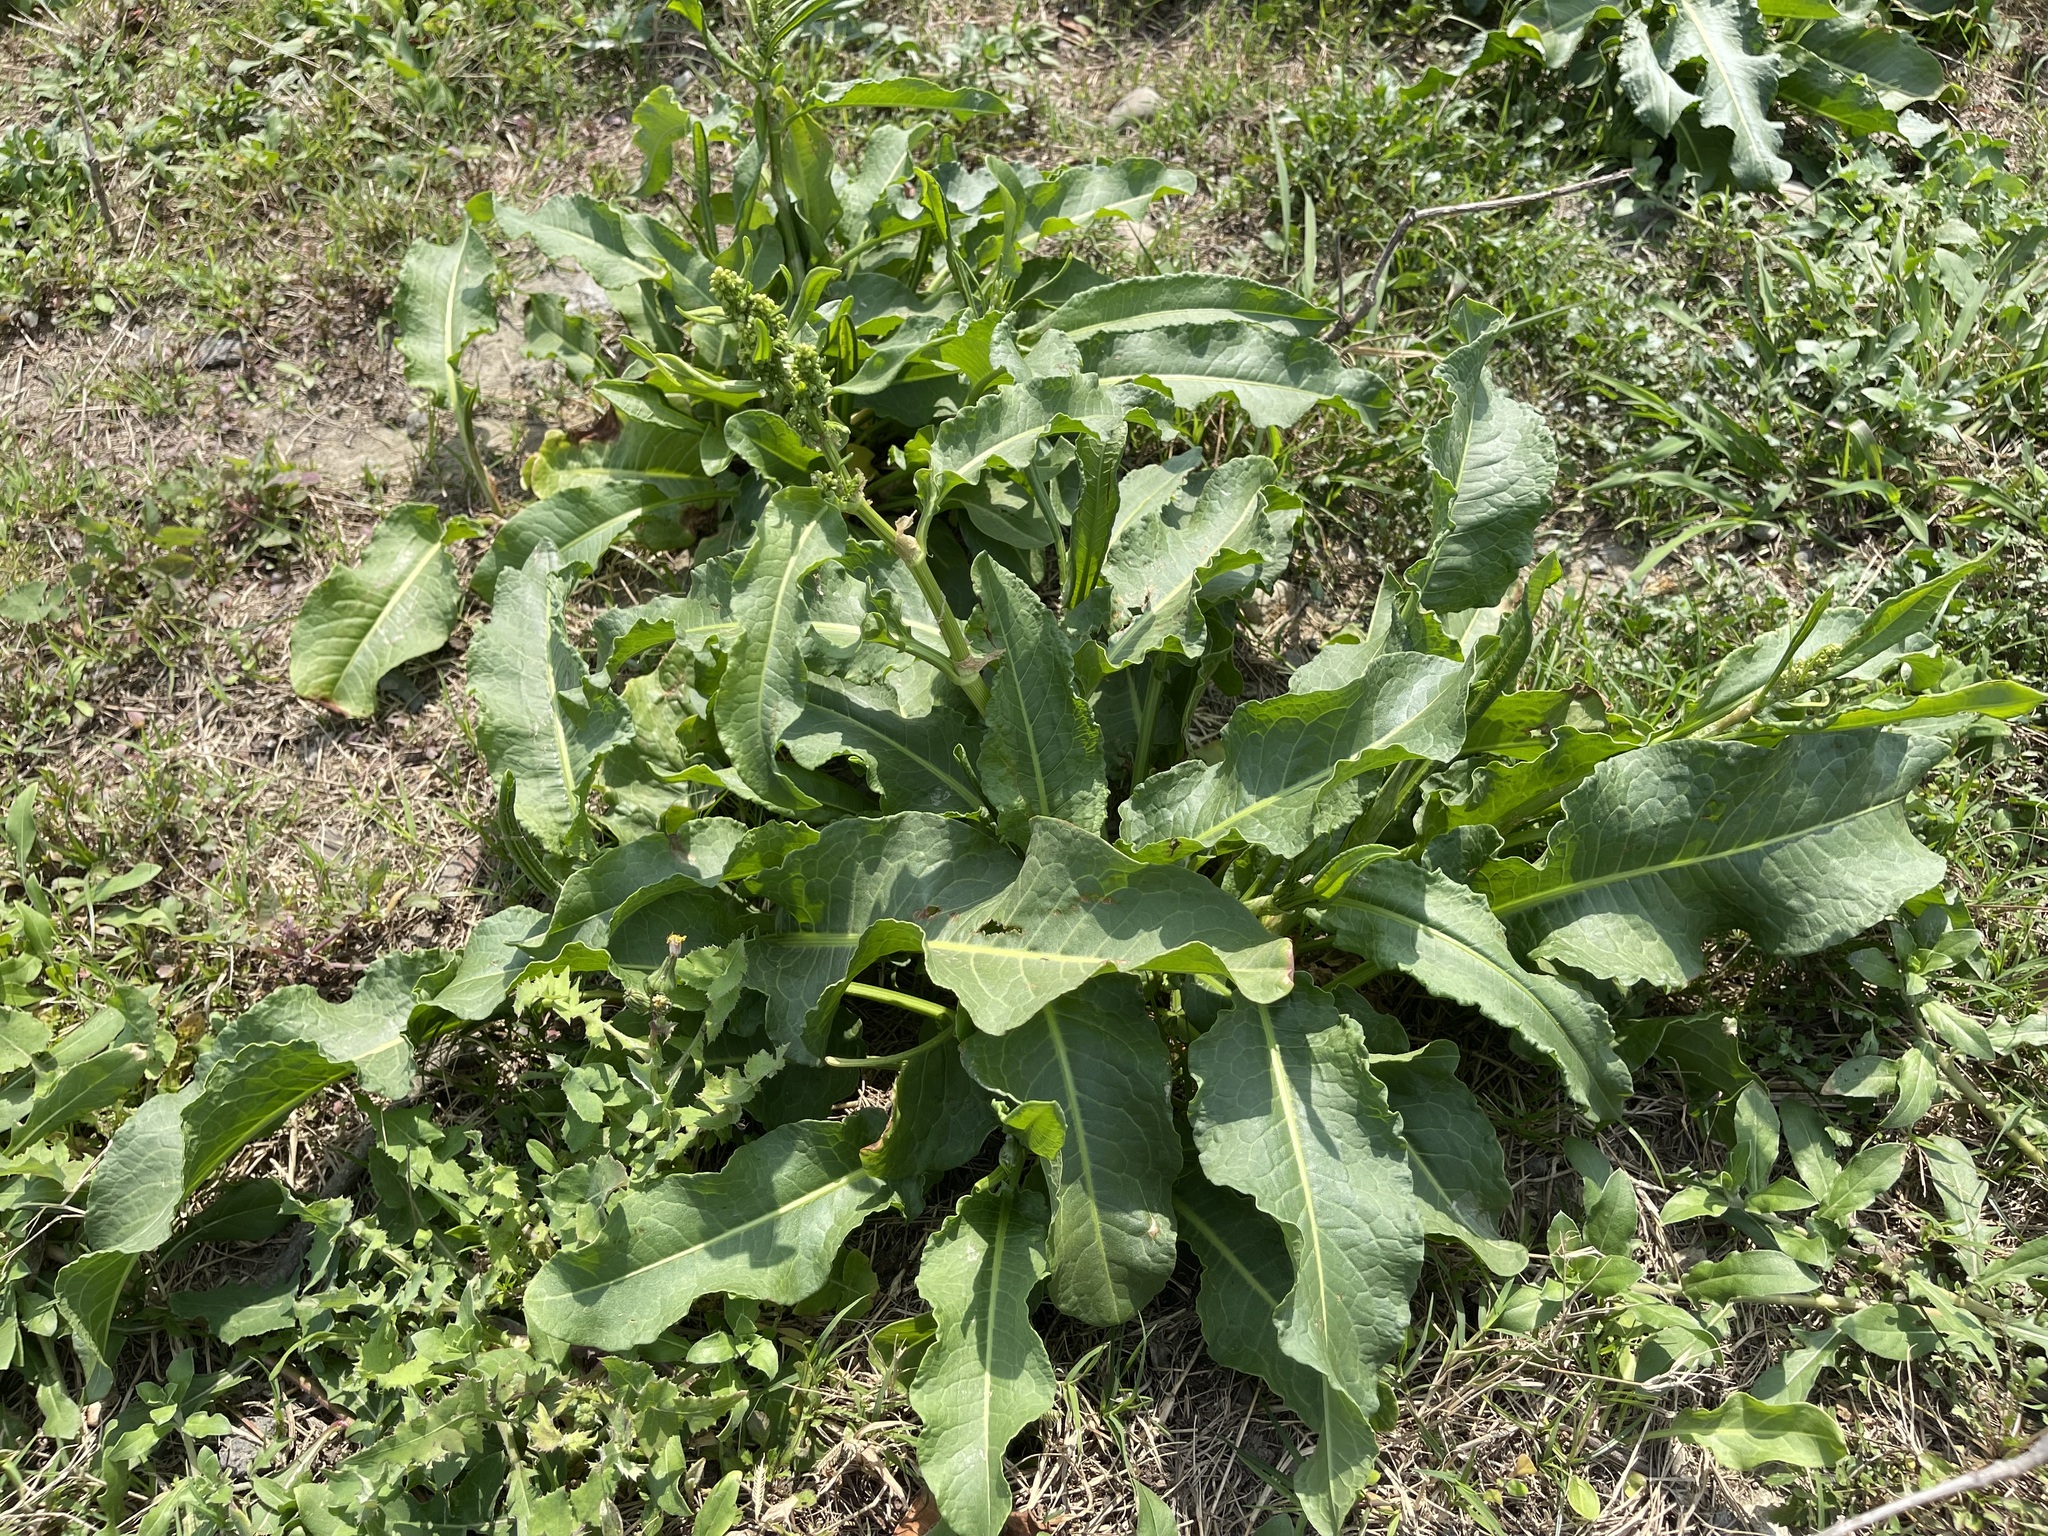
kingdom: Plantae
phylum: Tracheophyta
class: Magnoliopsida
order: Caryophyllales
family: Polygonaceae
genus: Rumex
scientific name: Rumex japonicus
